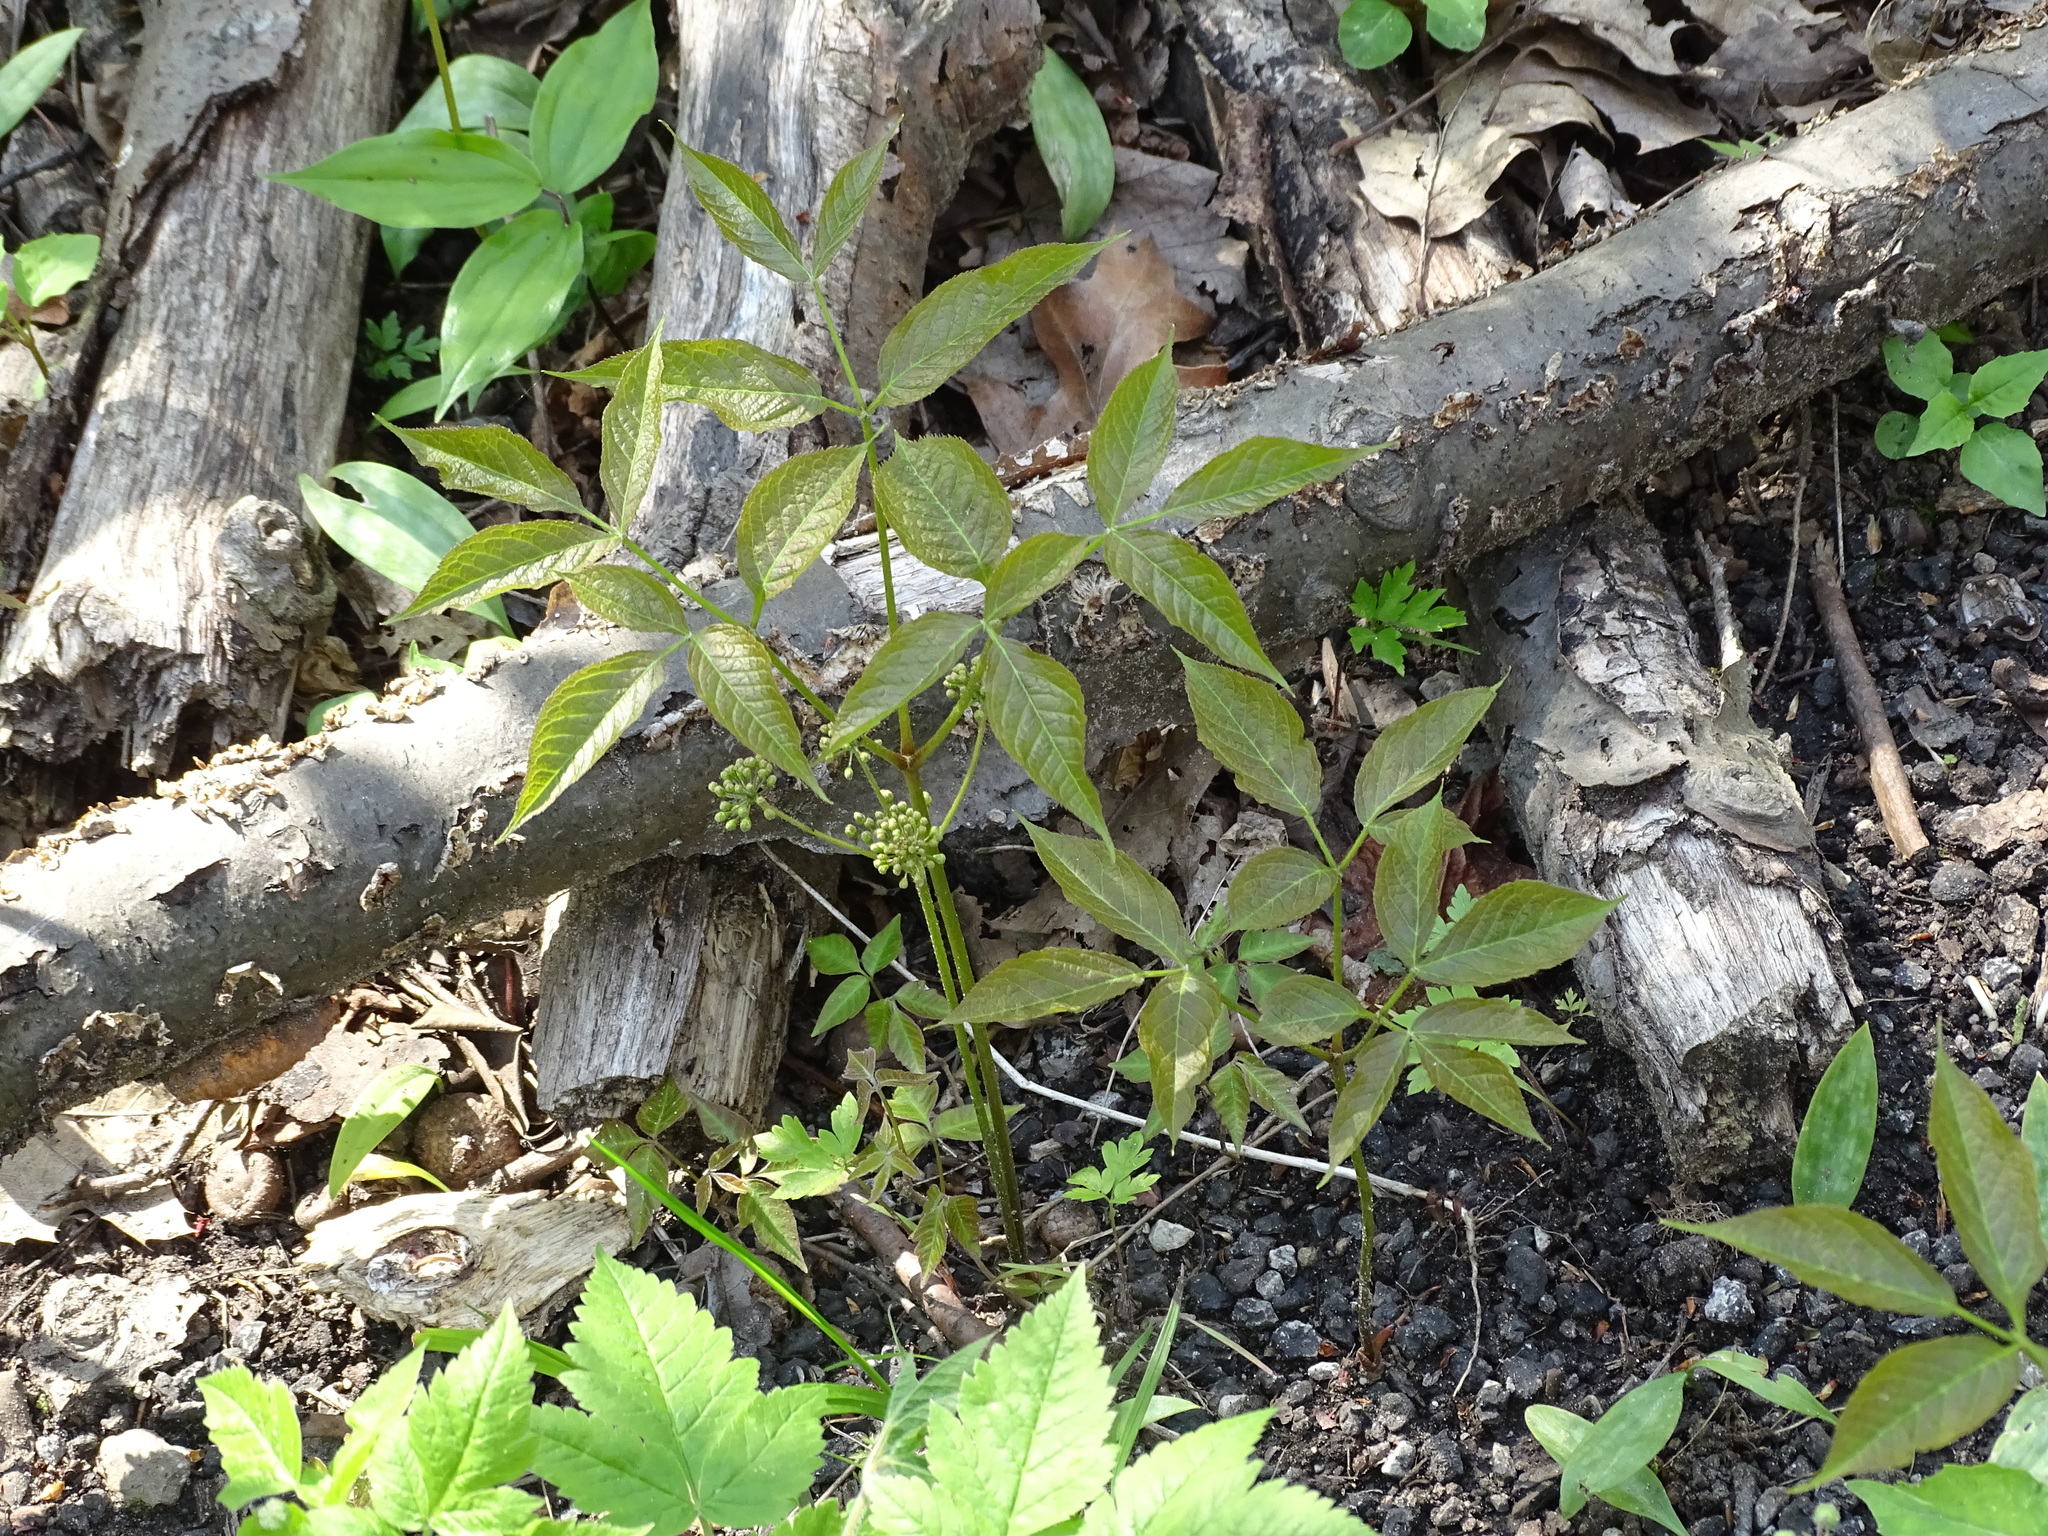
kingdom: Plantae
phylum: Tracheophyta
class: Magnoliopsida
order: Apiales
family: Araliaceae
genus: Aralia
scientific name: Aralia nudicaulis
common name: Wild sarsaparilla
